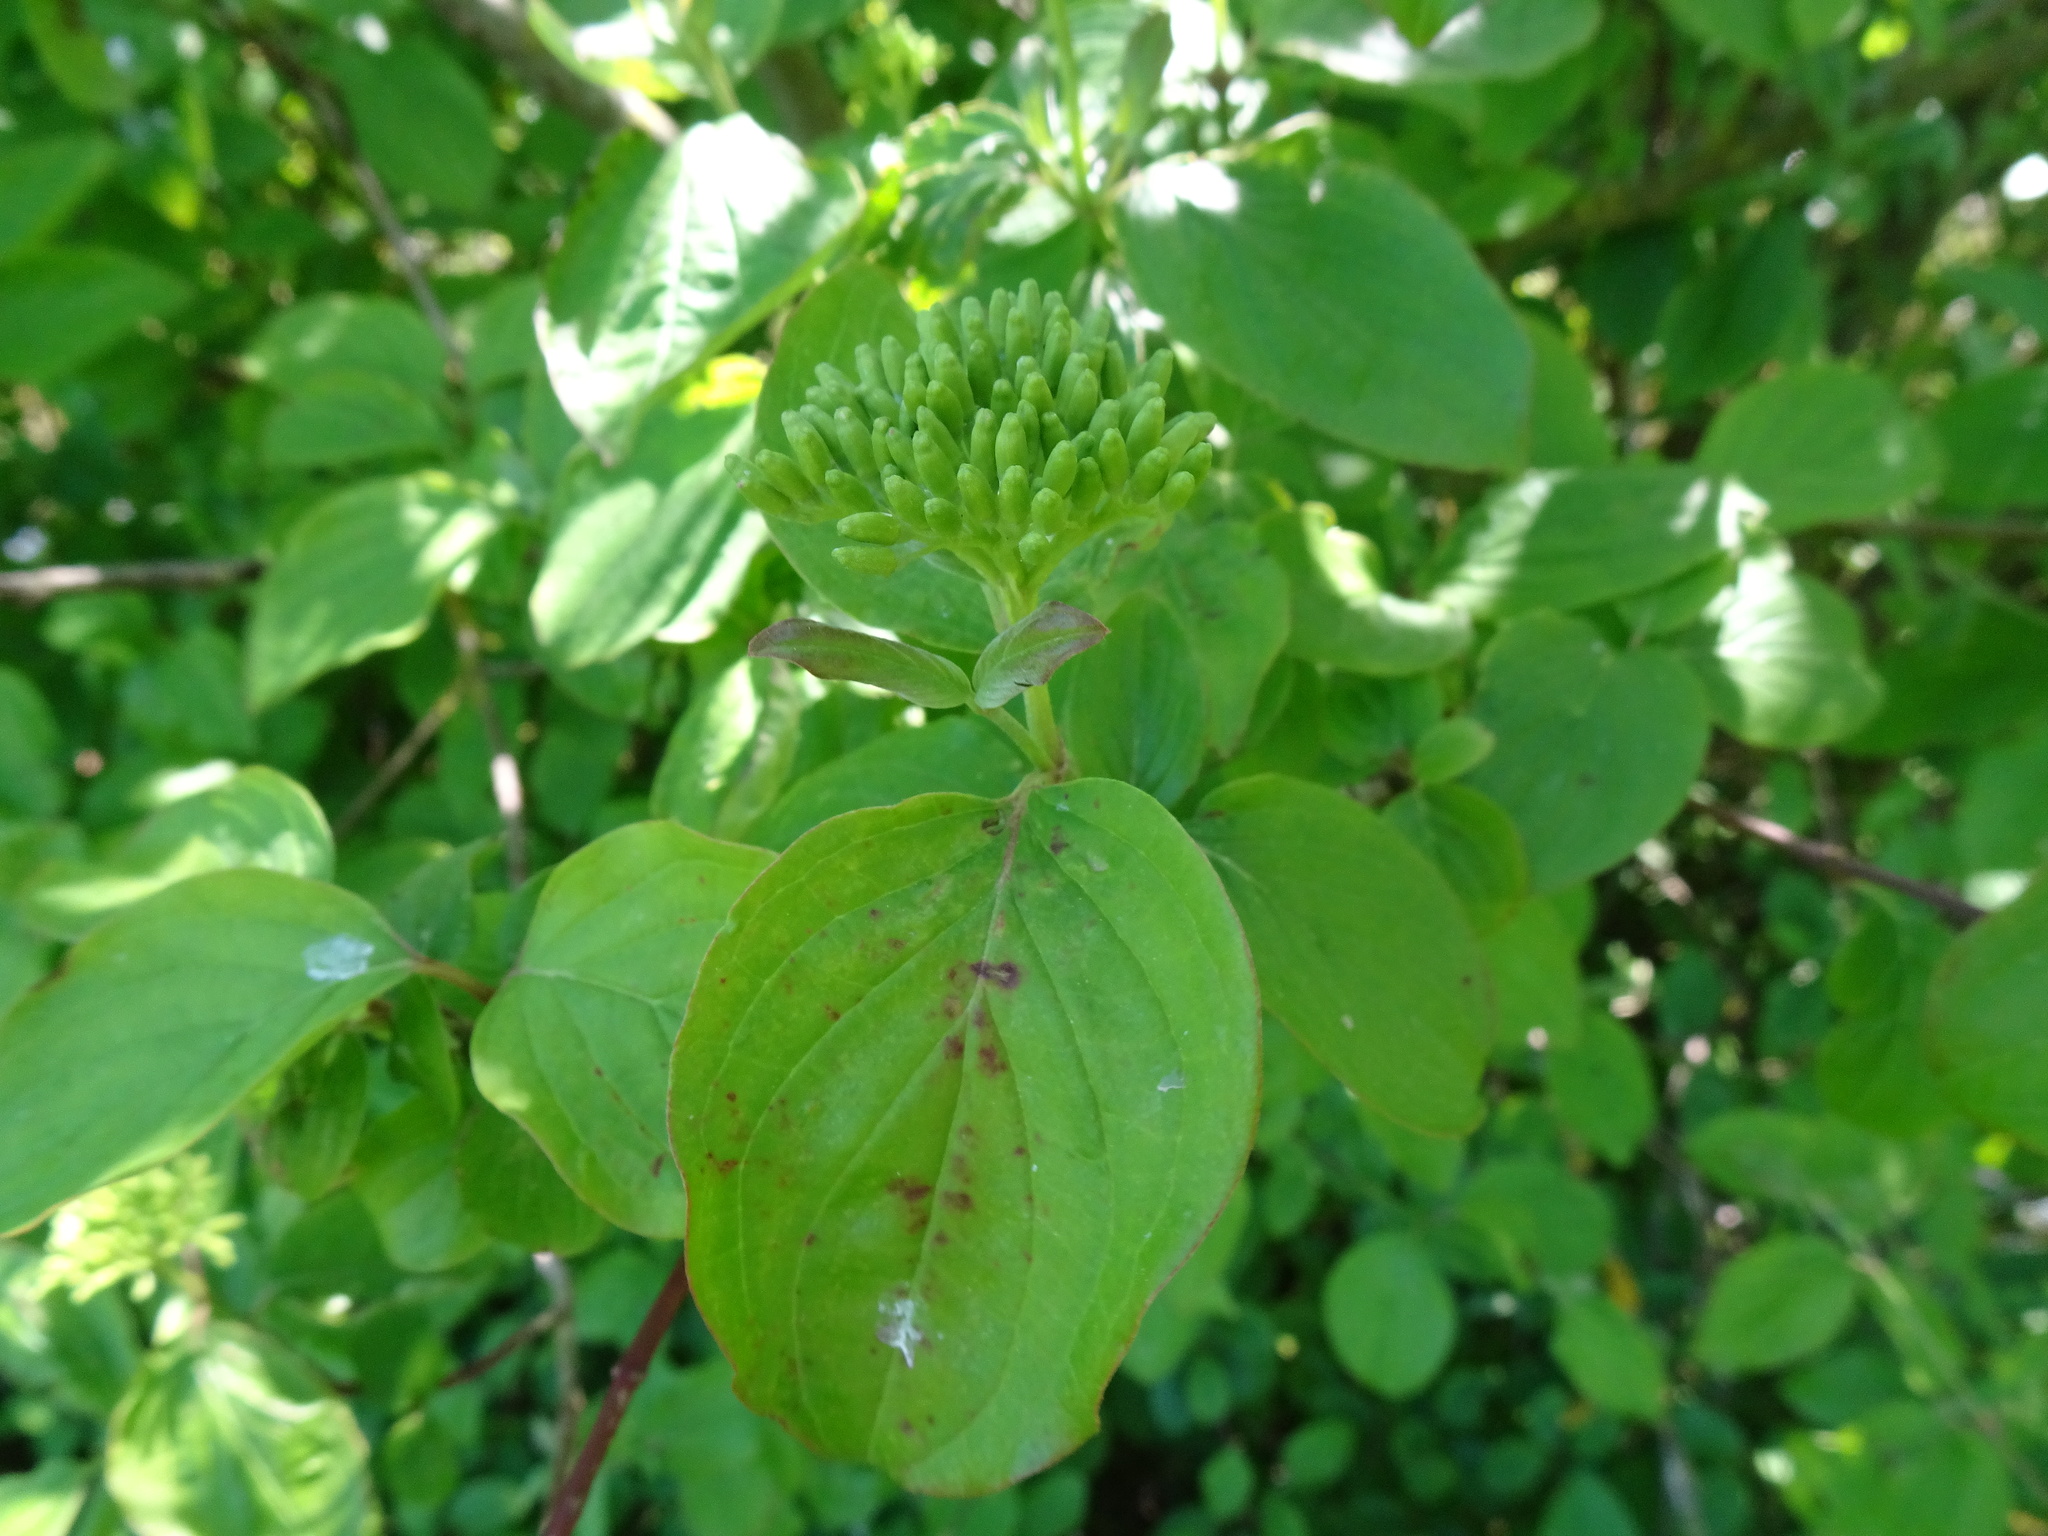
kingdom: Plantae
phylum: Tracheophyta
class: Magnoliopsida
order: Cornales
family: Cornaceae
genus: Cornus
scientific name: Cornus sanguinea
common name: Dogwood
